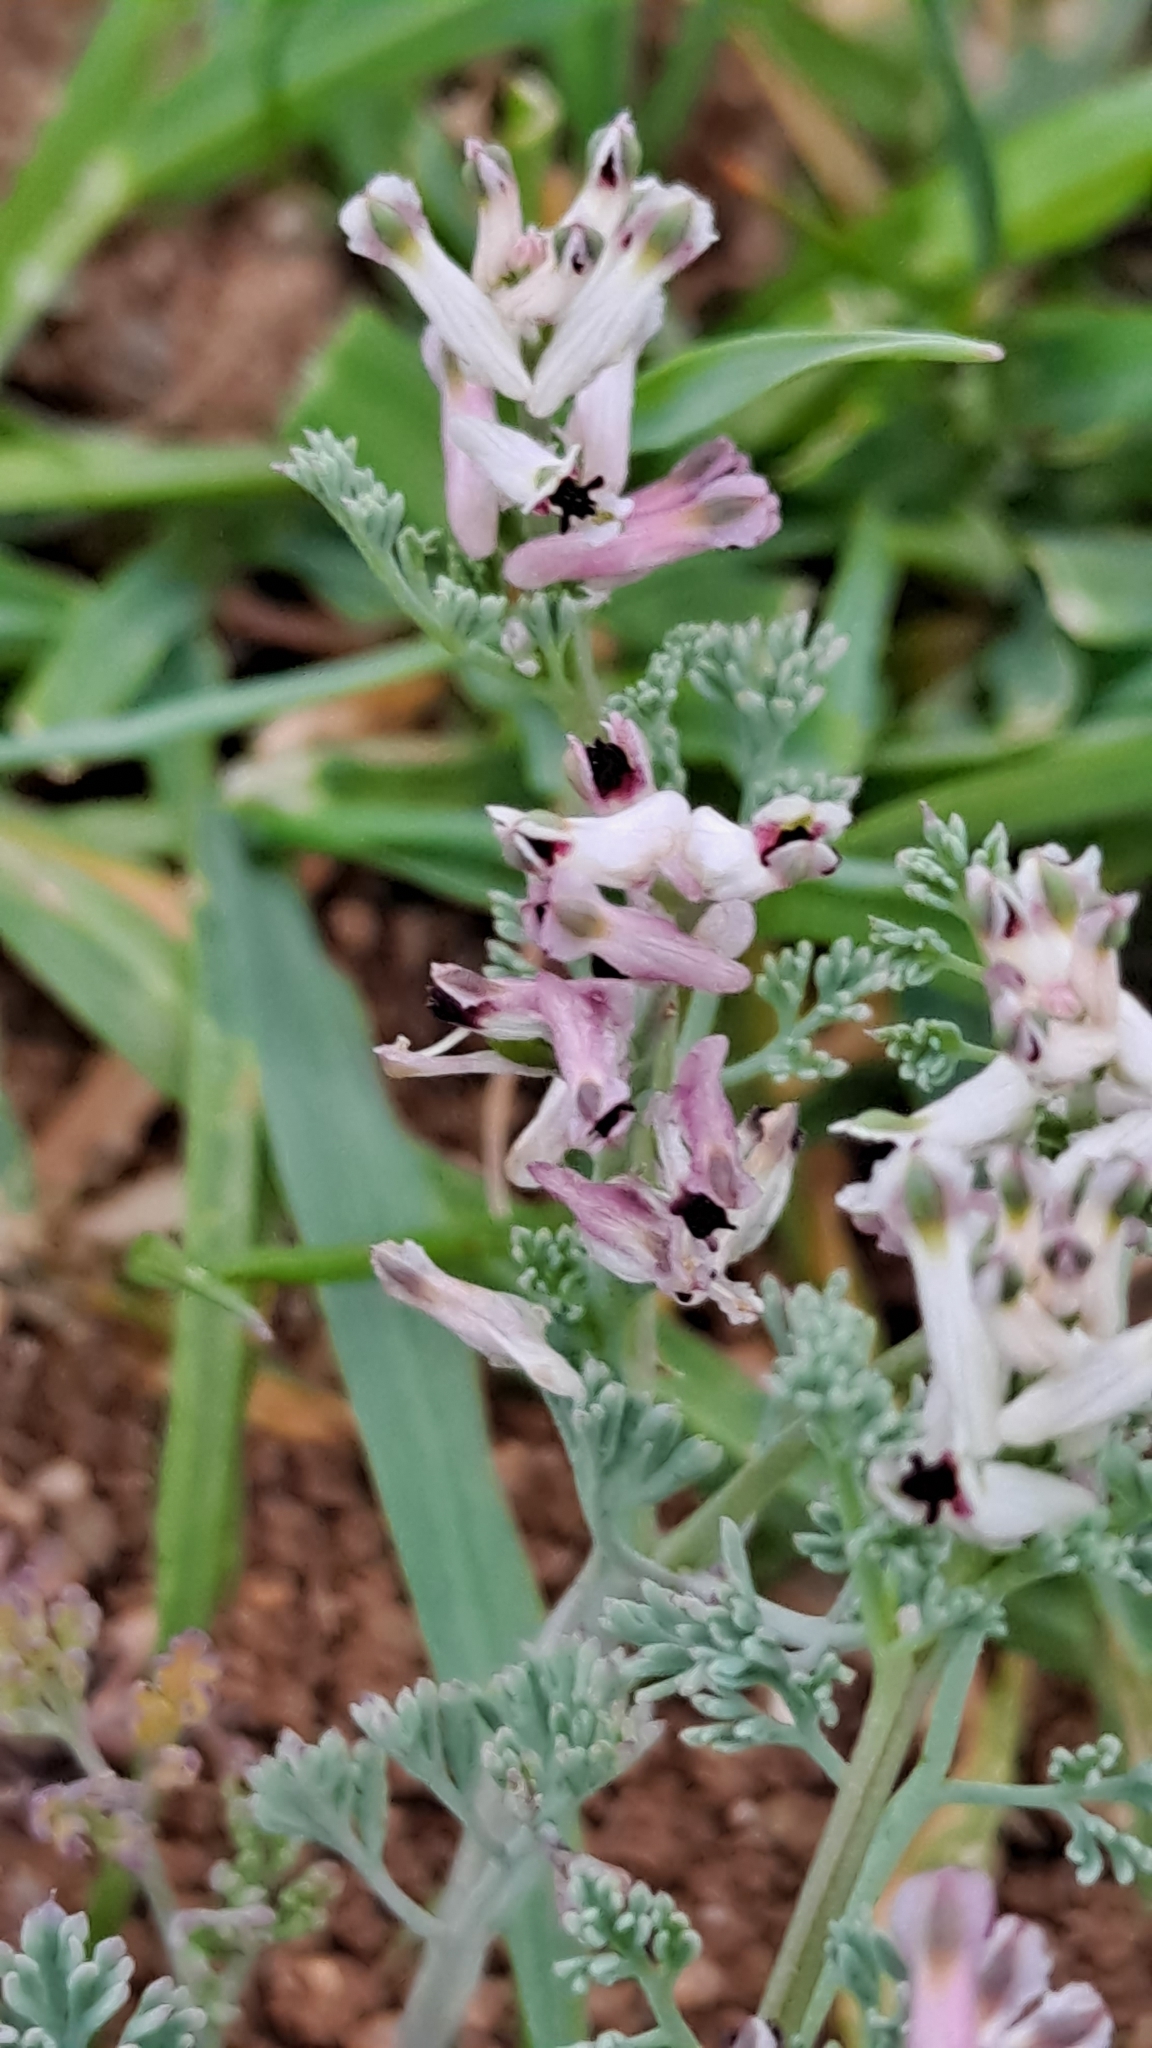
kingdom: Plantae
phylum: Tracheophyta
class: Magnoliopsida
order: Ranunculales
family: Papaveraceae
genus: Fumaria
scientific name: Fumaria parviflora
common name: Fine-leaved fumitory
